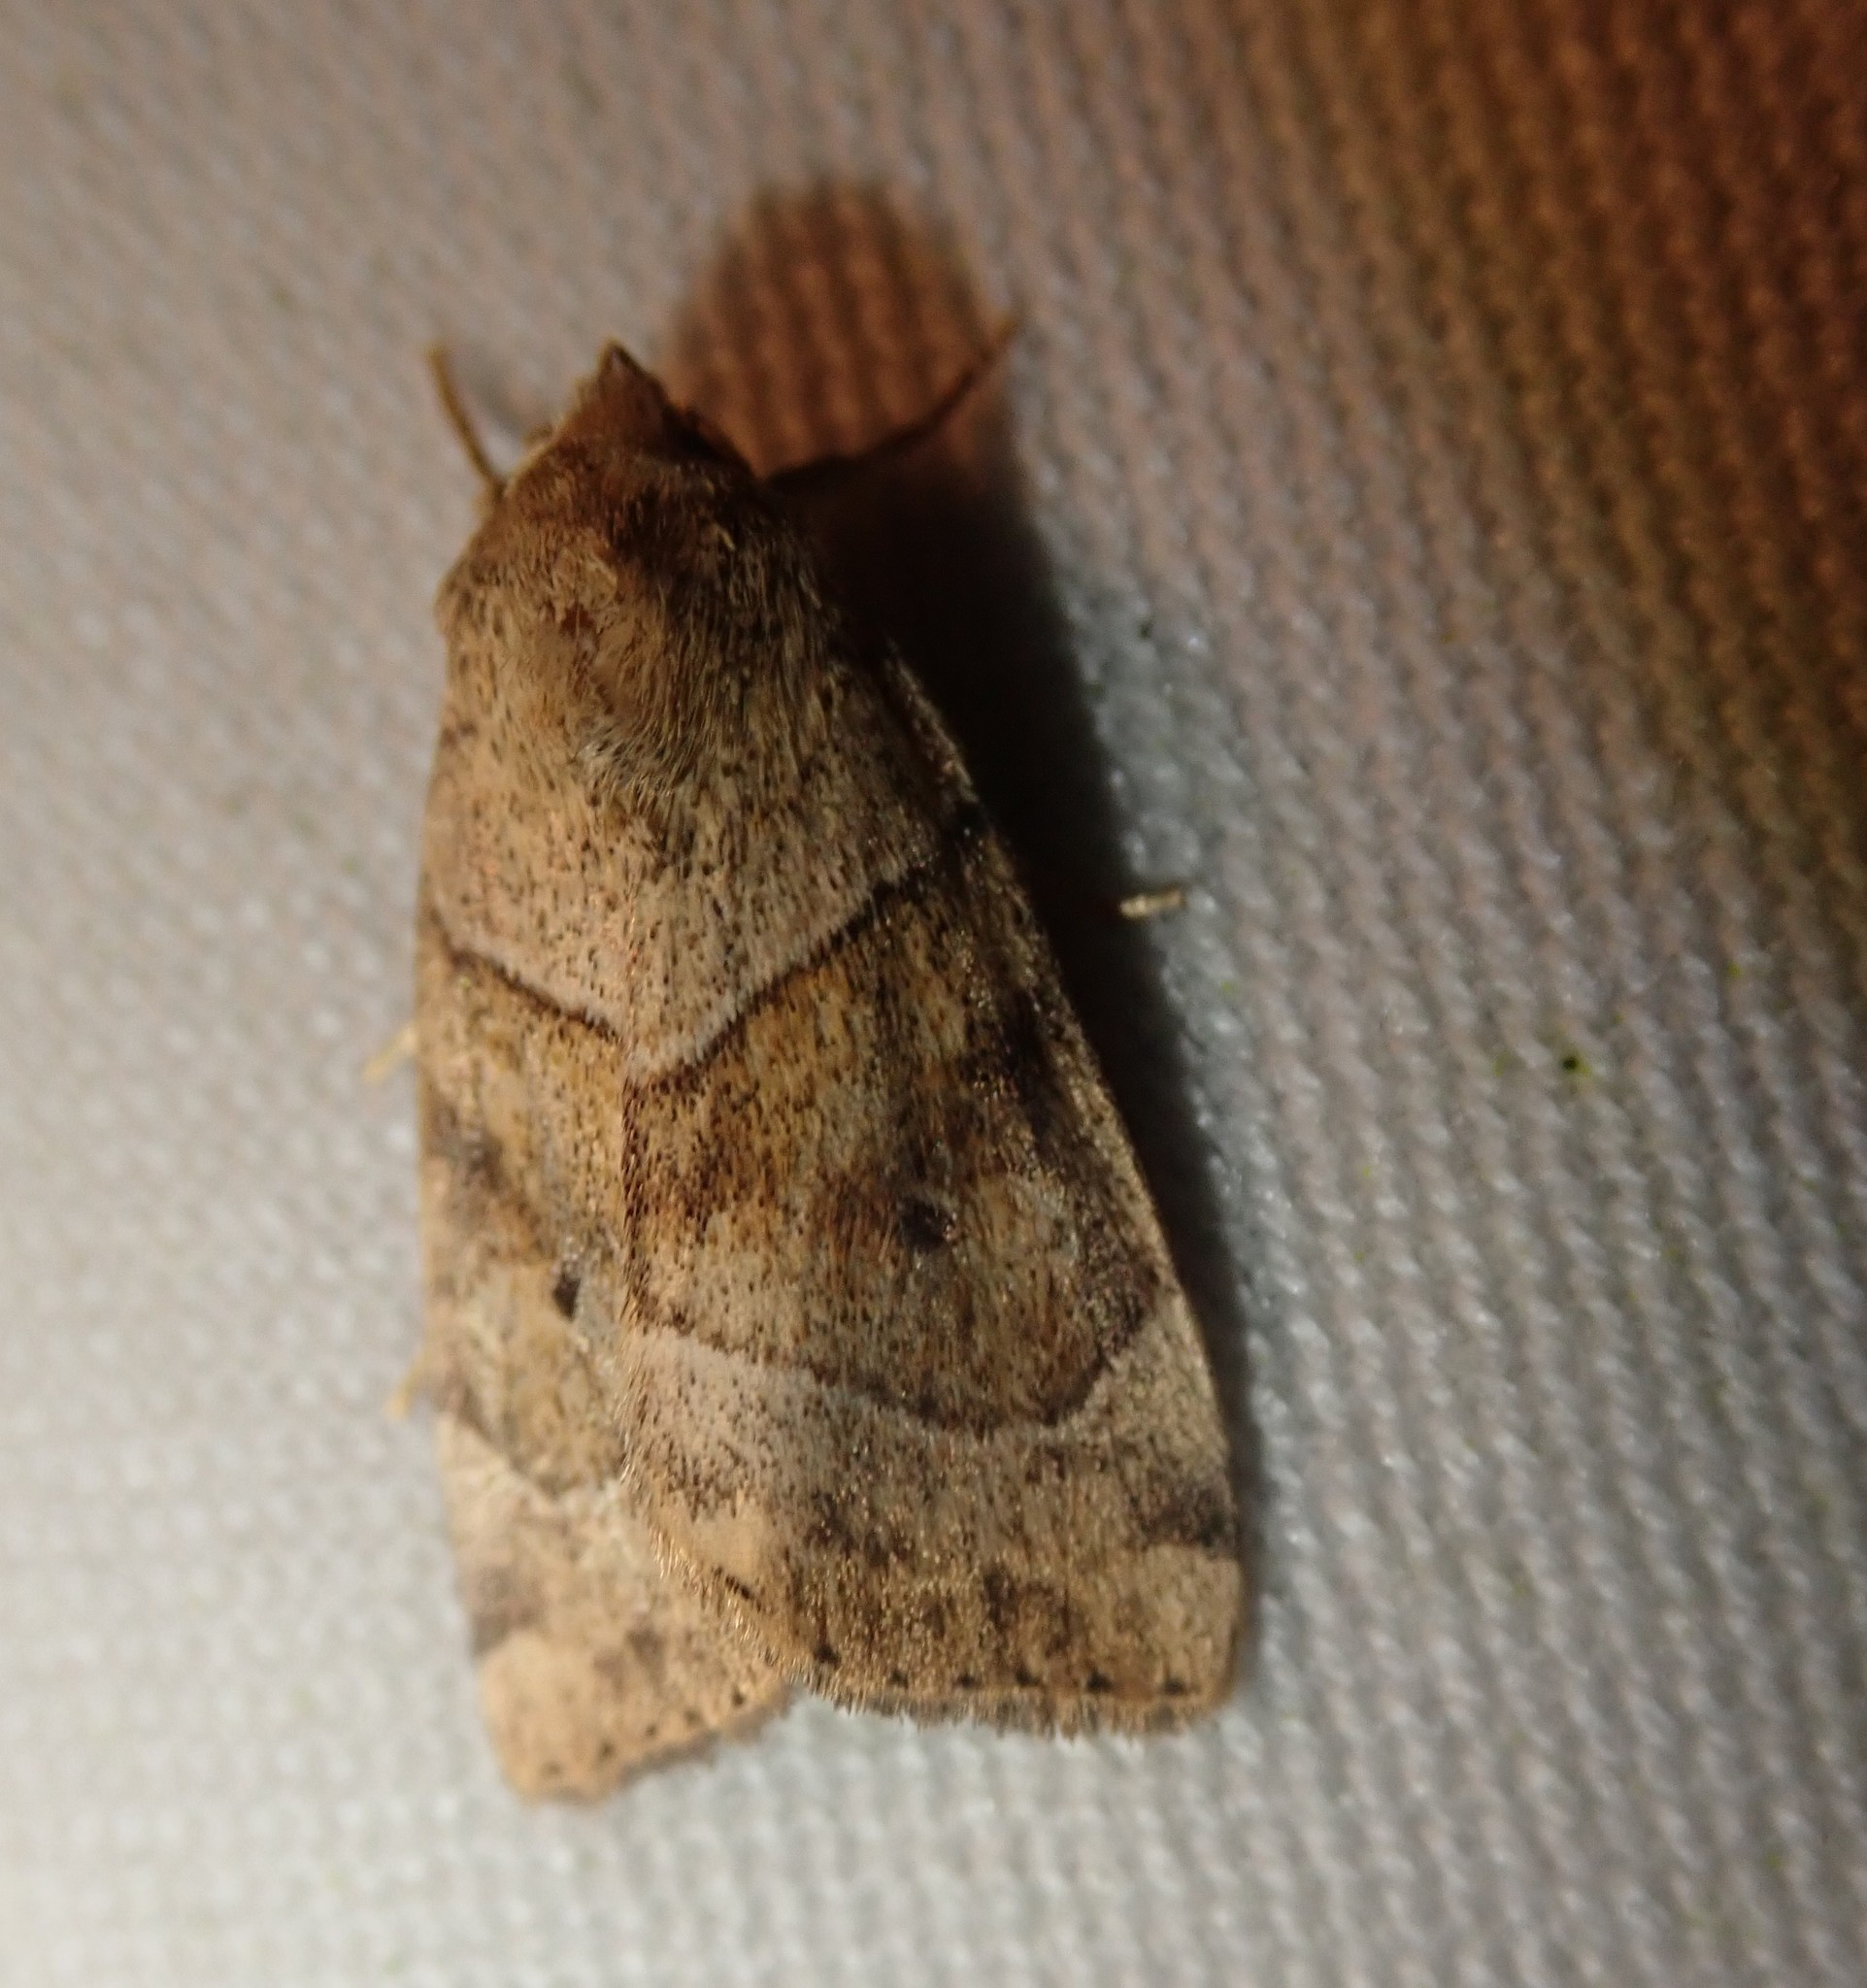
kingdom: Animalia
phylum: Arthropoda
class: Insecta
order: Lepidoptera
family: Noctuidae
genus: Cosmia
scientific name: Cosmia trapezina
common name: Dun-bar
